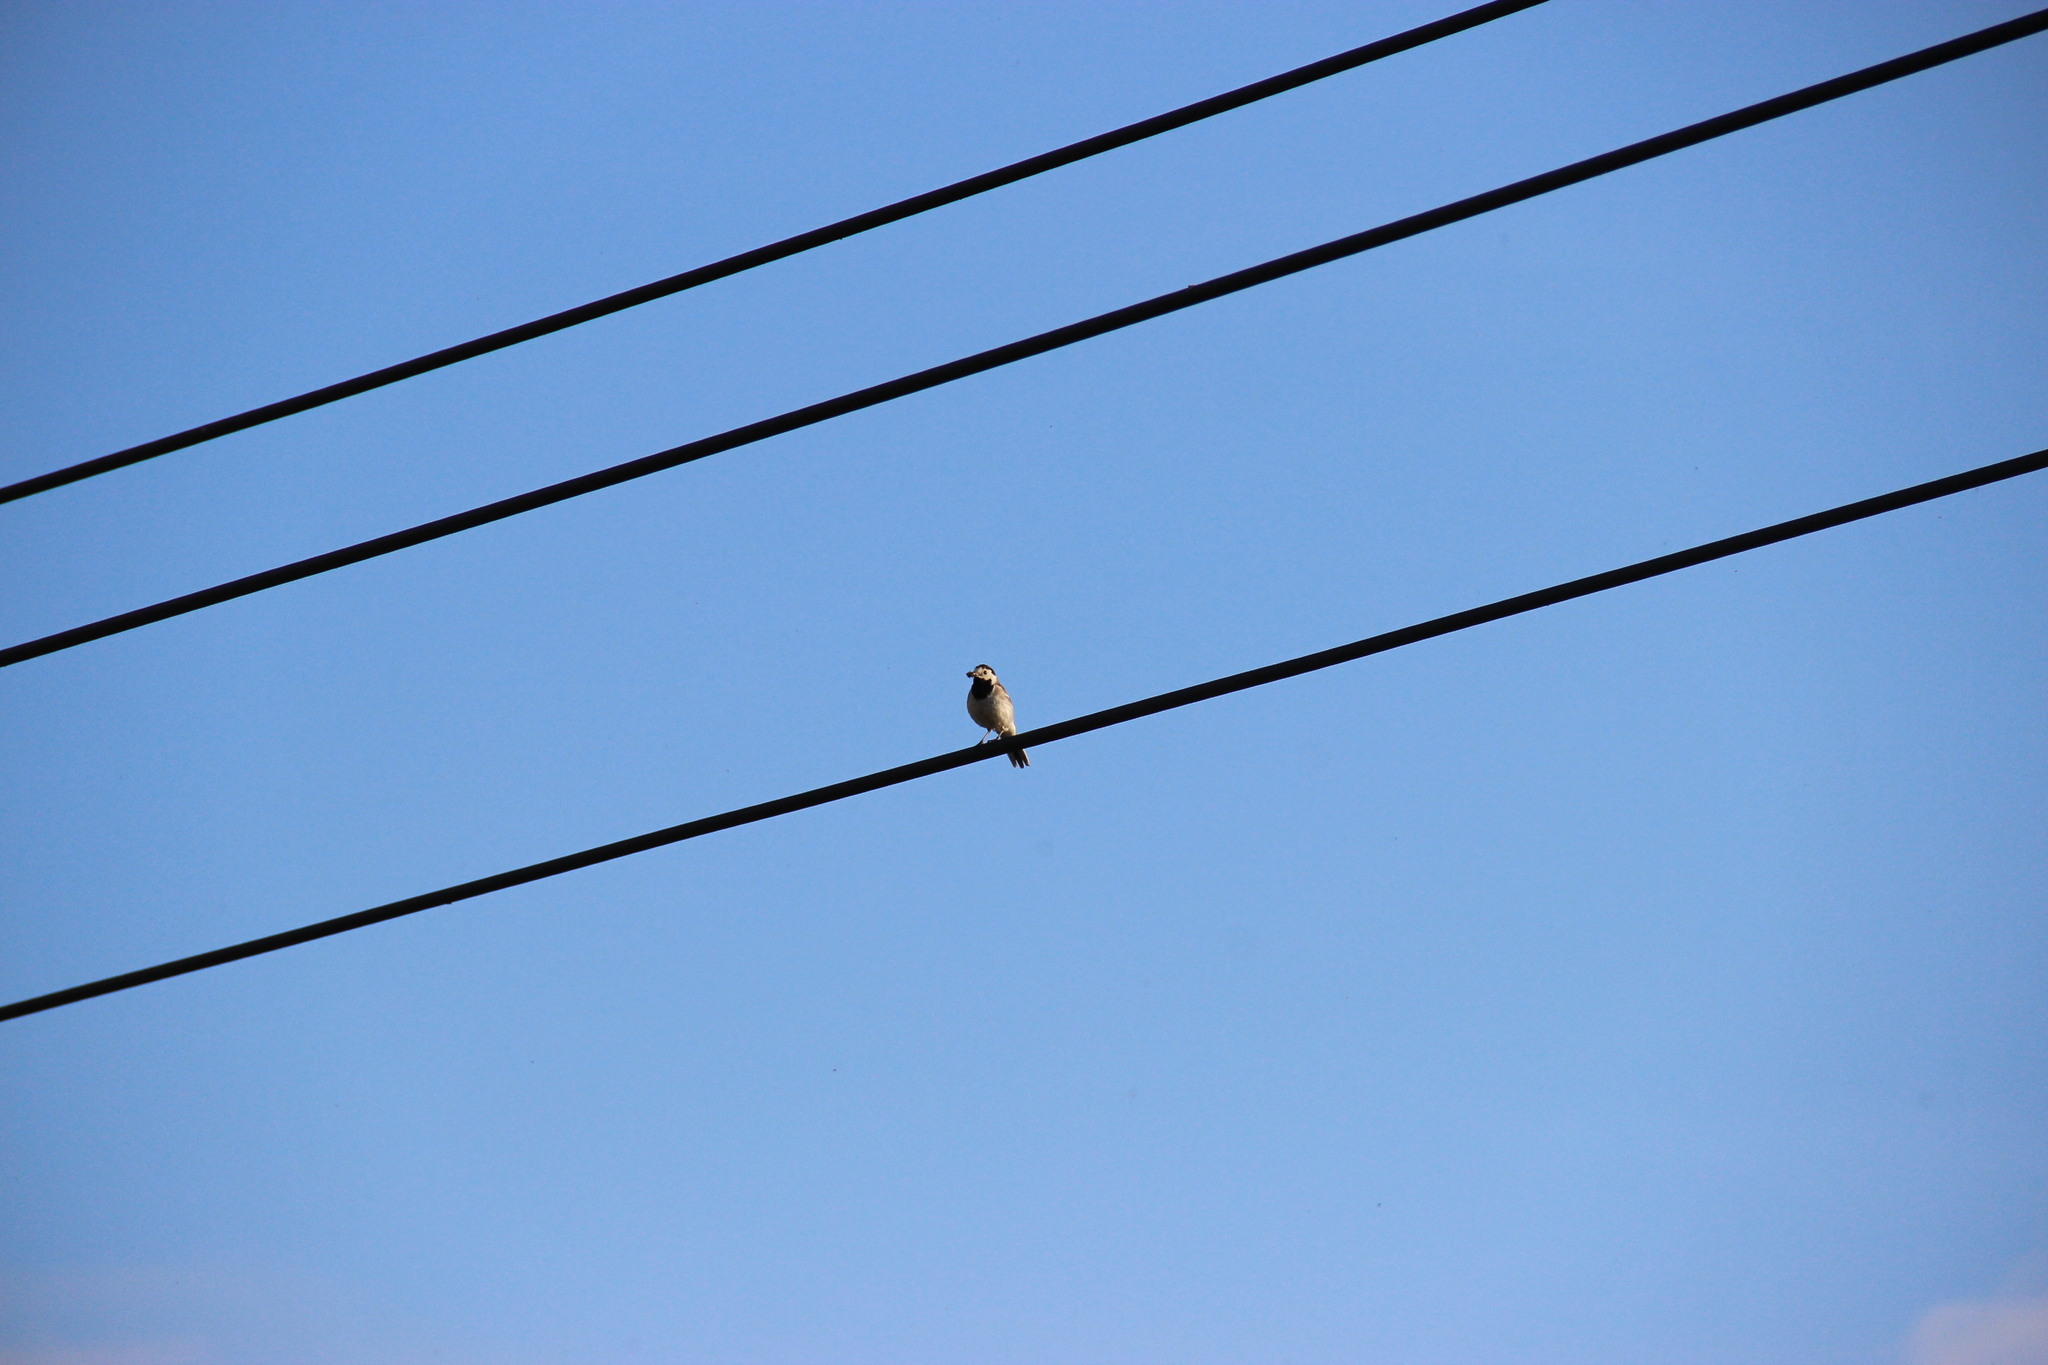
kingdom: Animalia
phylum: Chordata
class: Aves
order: Passeriformes
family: Motacillidae
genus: Motacilla
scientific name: Motacilla alba
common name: White wagtail
